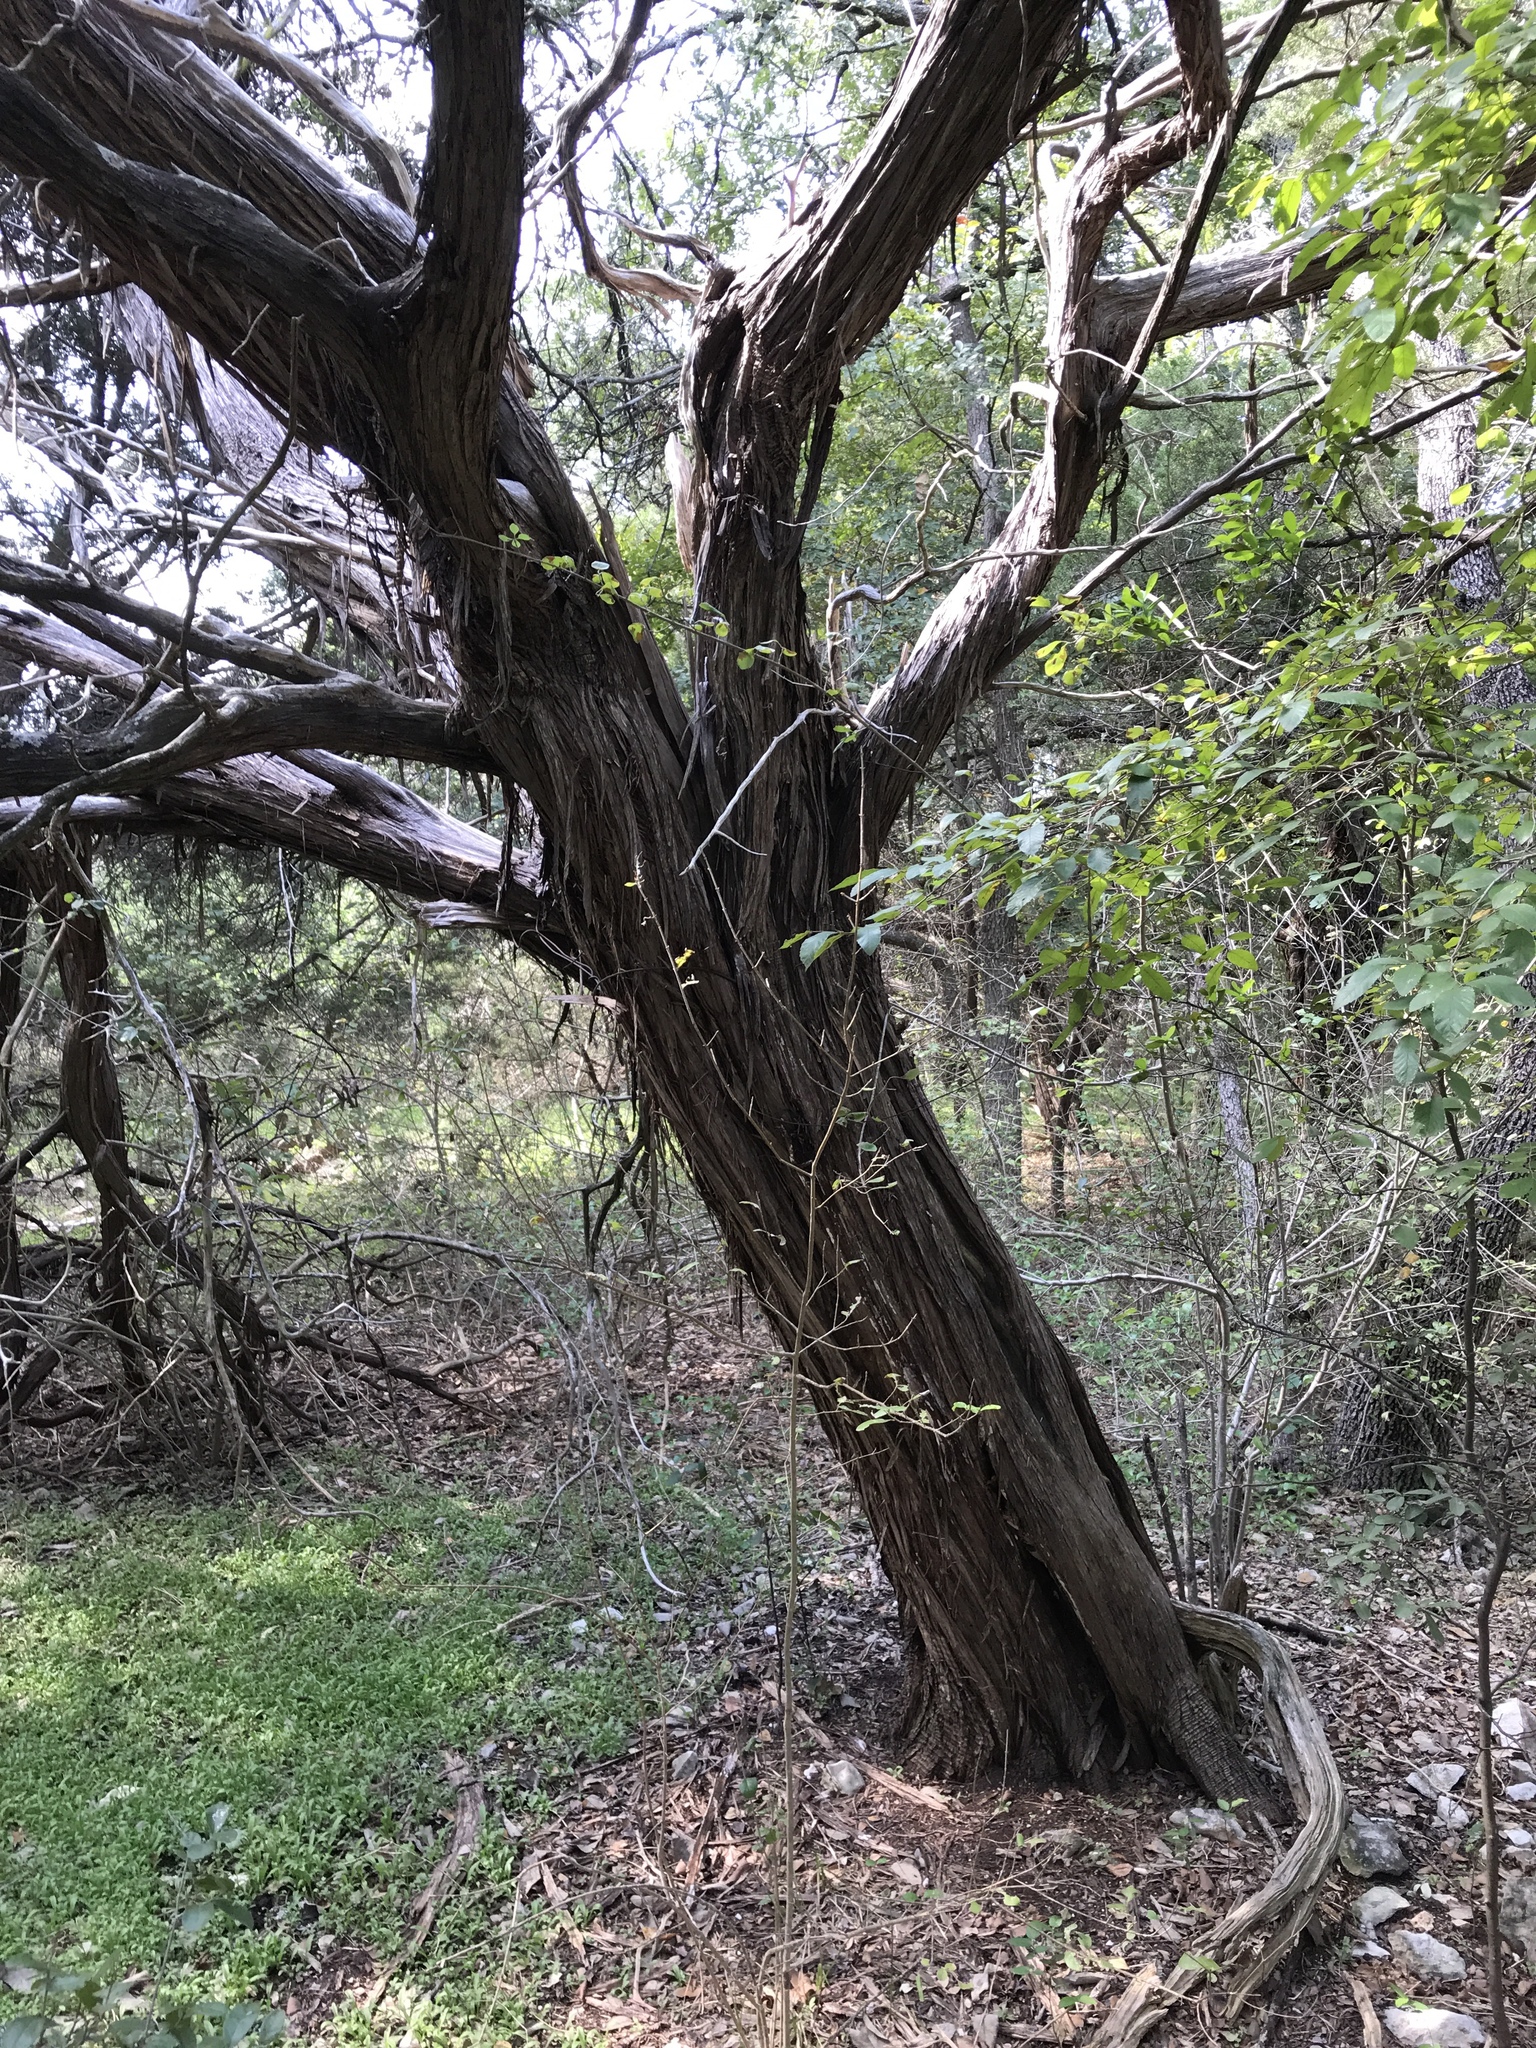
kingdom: Plantae
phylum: Tracheophyta
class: Pinopsida
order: Pinales
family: Cupressaceae
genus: Juniperus
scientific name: Juniperus ashei
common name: Mexican juniper
